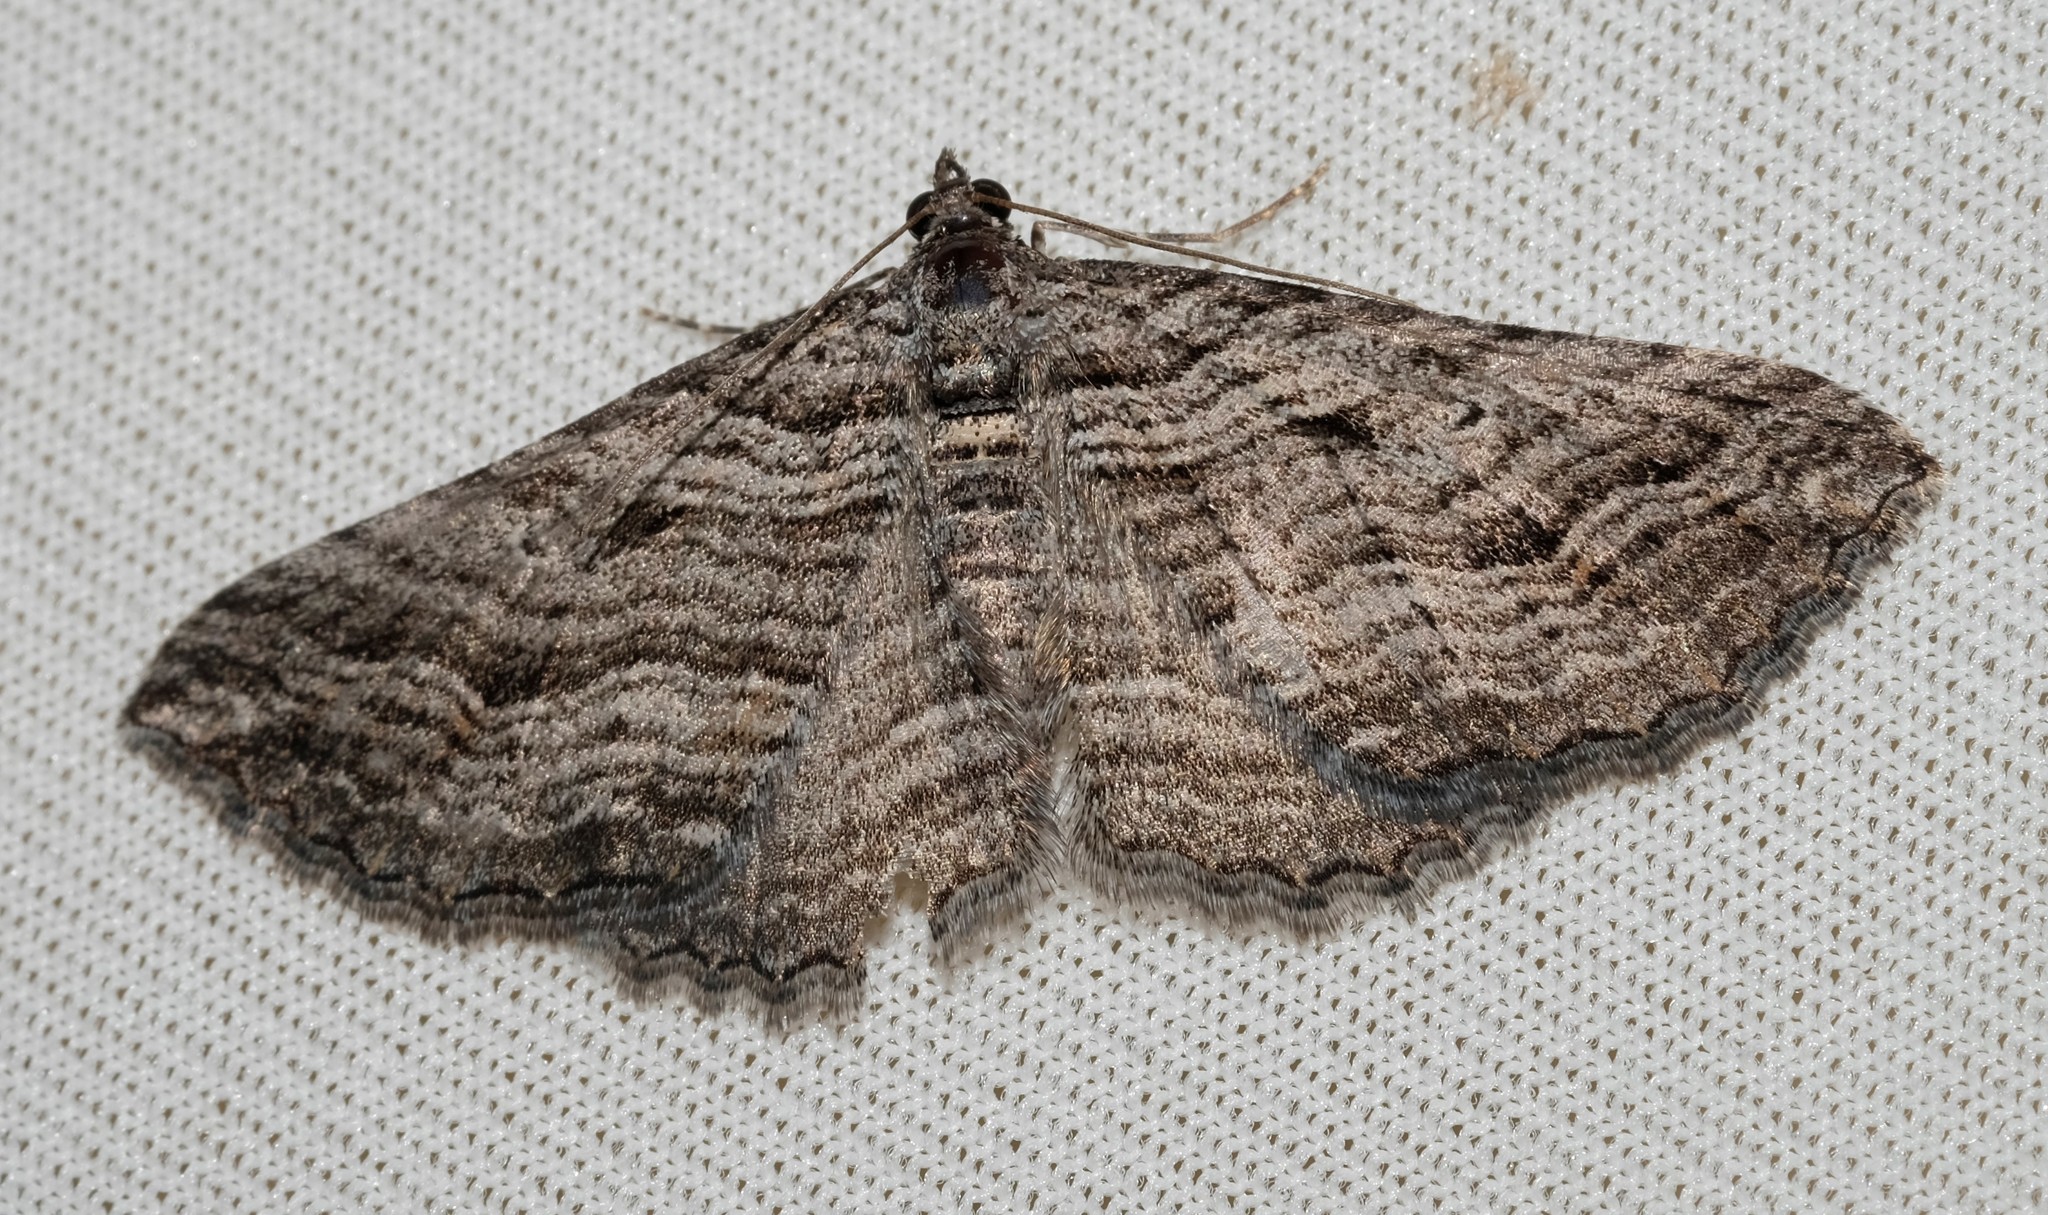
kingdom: Animalia
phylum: Arthropoda
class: Insecta
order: Lepidoptera
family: Geometridae
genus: Chrysolarentia
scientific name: Chrysolarentia severata
